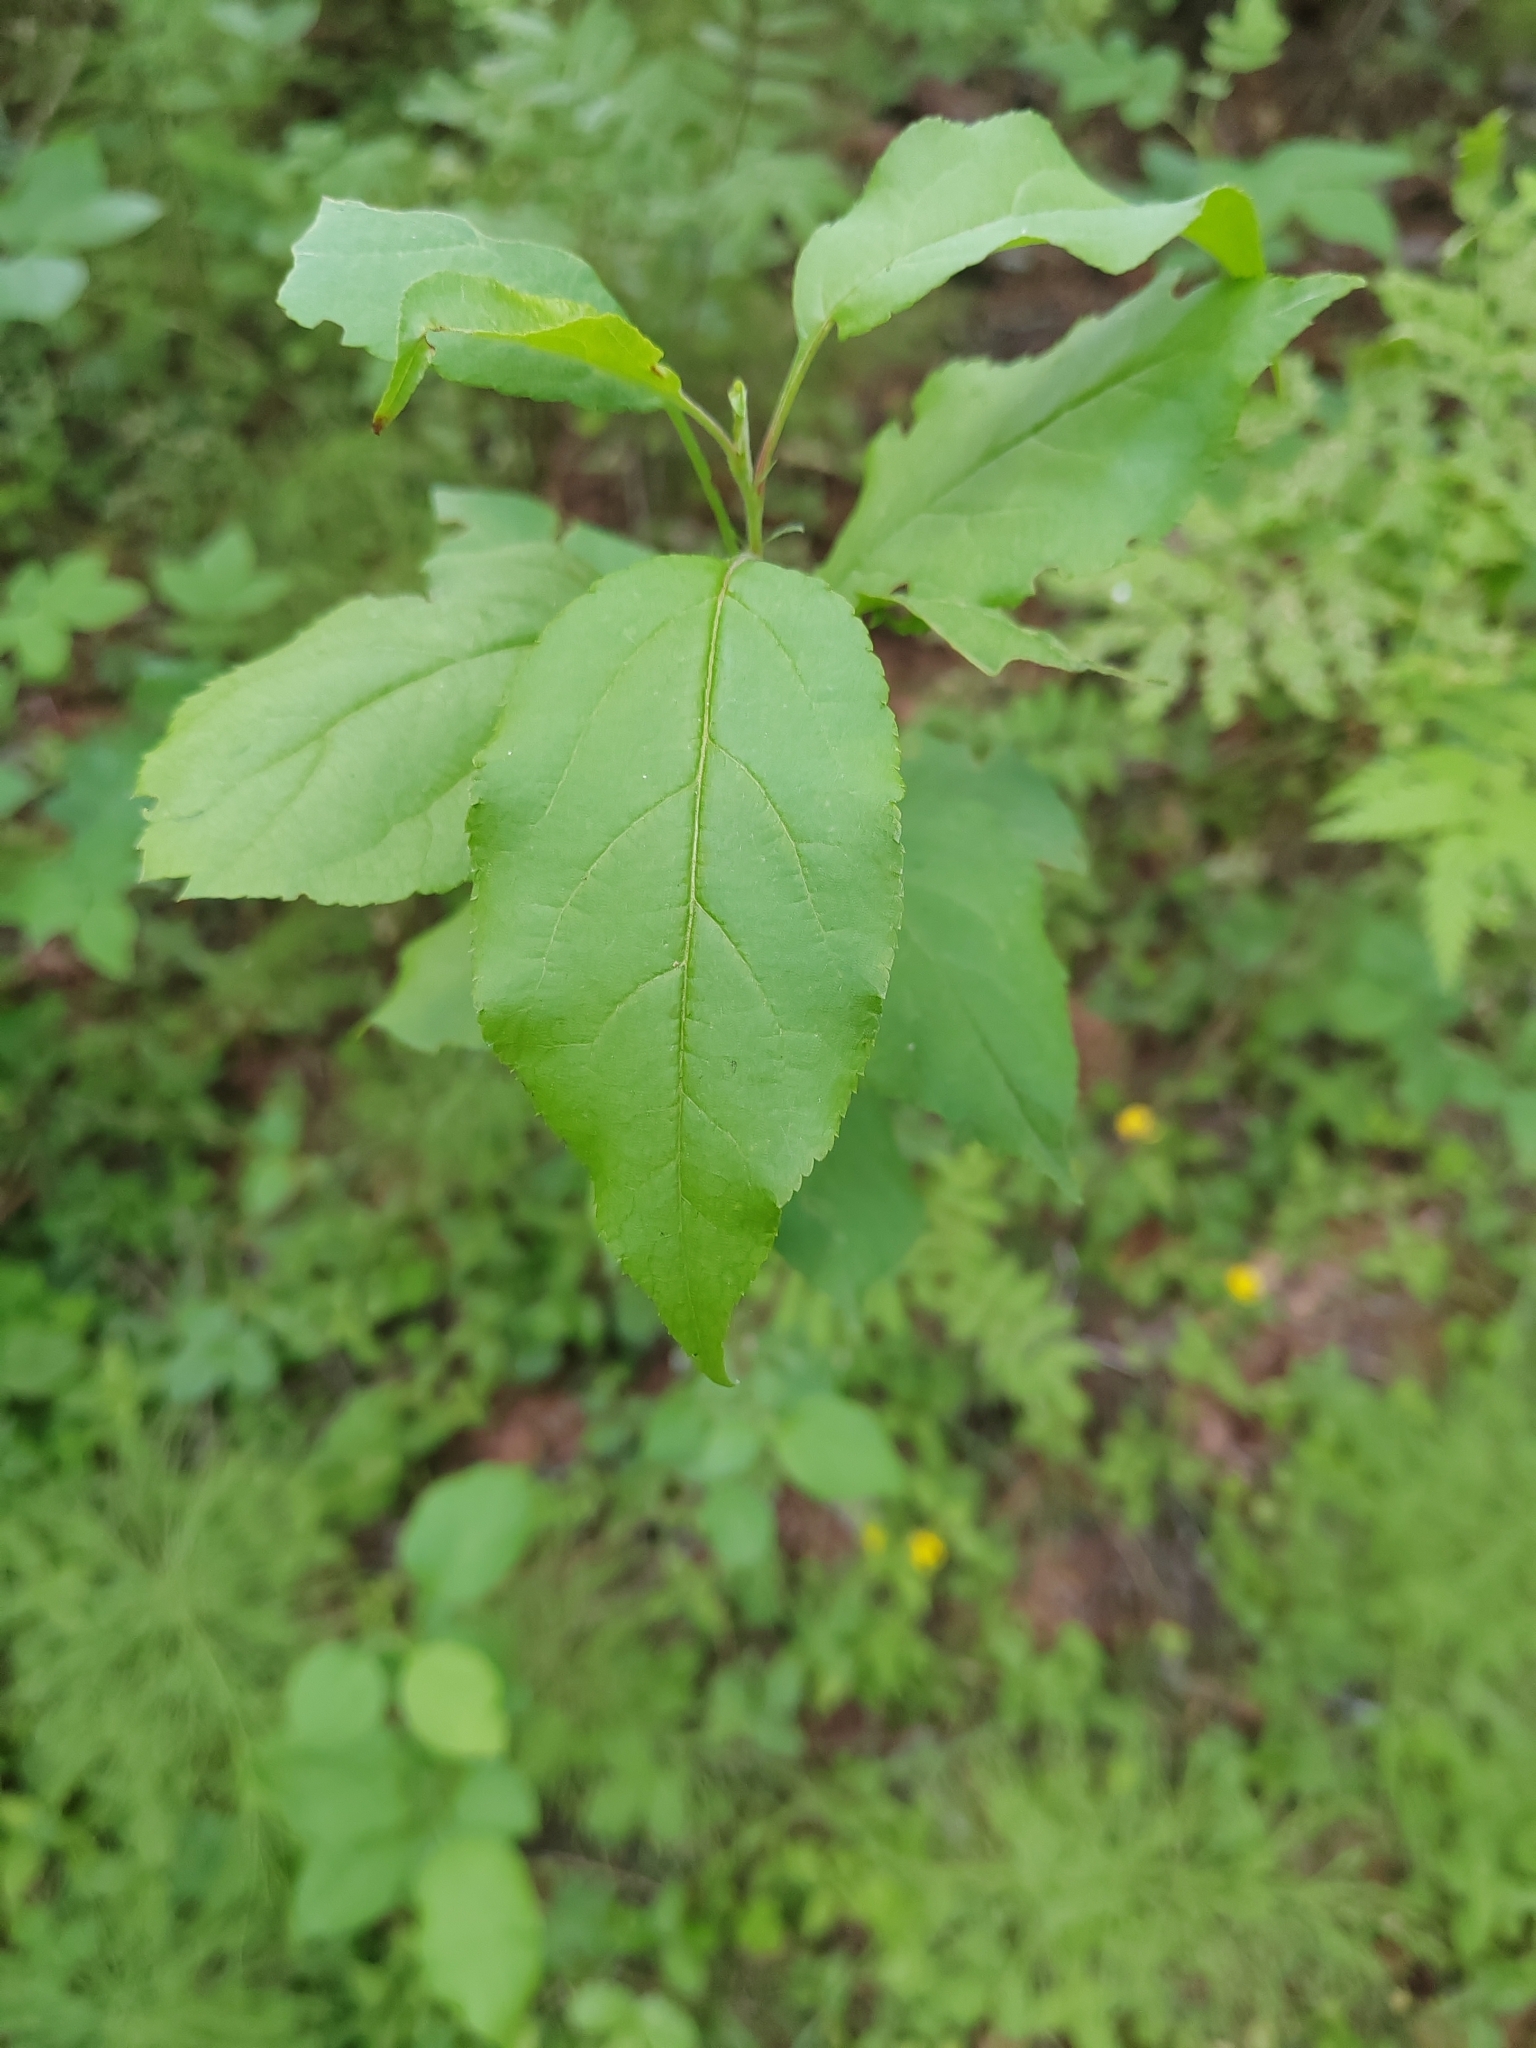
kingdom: Plantae
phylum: Tracheophyta
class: Magnoliopsida
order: Rosales
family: Rosaceae
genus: Malus
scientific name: Malus baccata
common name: Siberian crab
